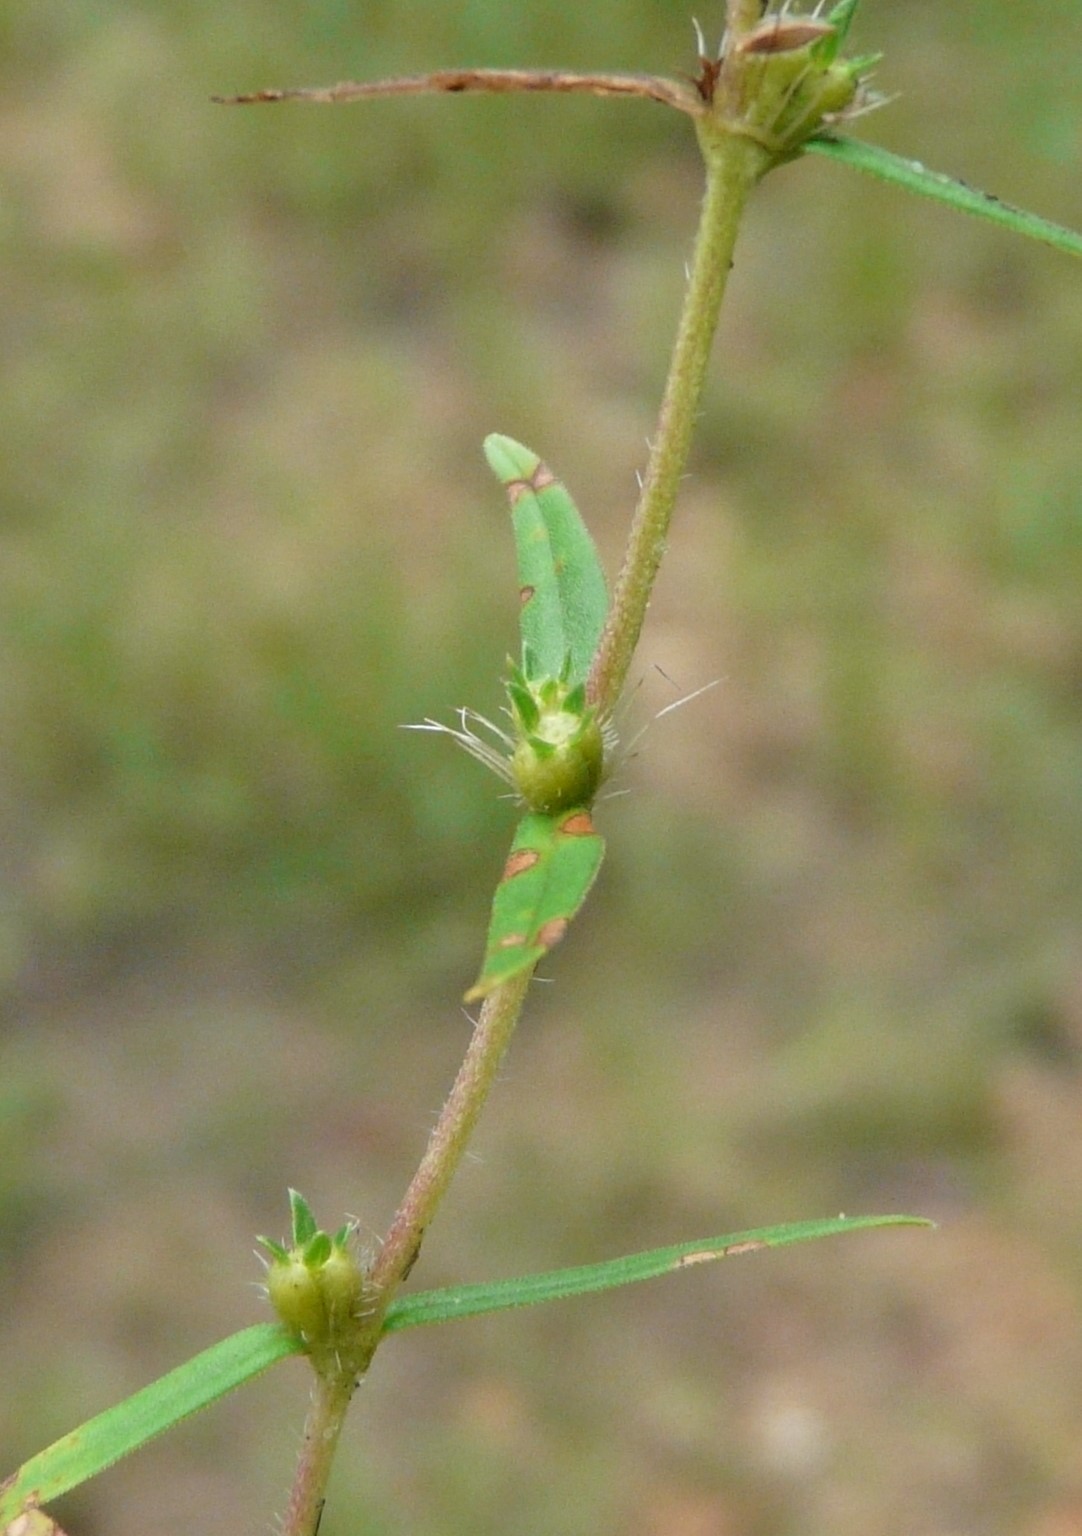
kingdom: Plantae
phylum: Tracheophyta
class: Magnoliopsida
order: Gentianales
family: Rubiaceae
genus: Hexasepalum
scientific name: Hexasepalum teres
